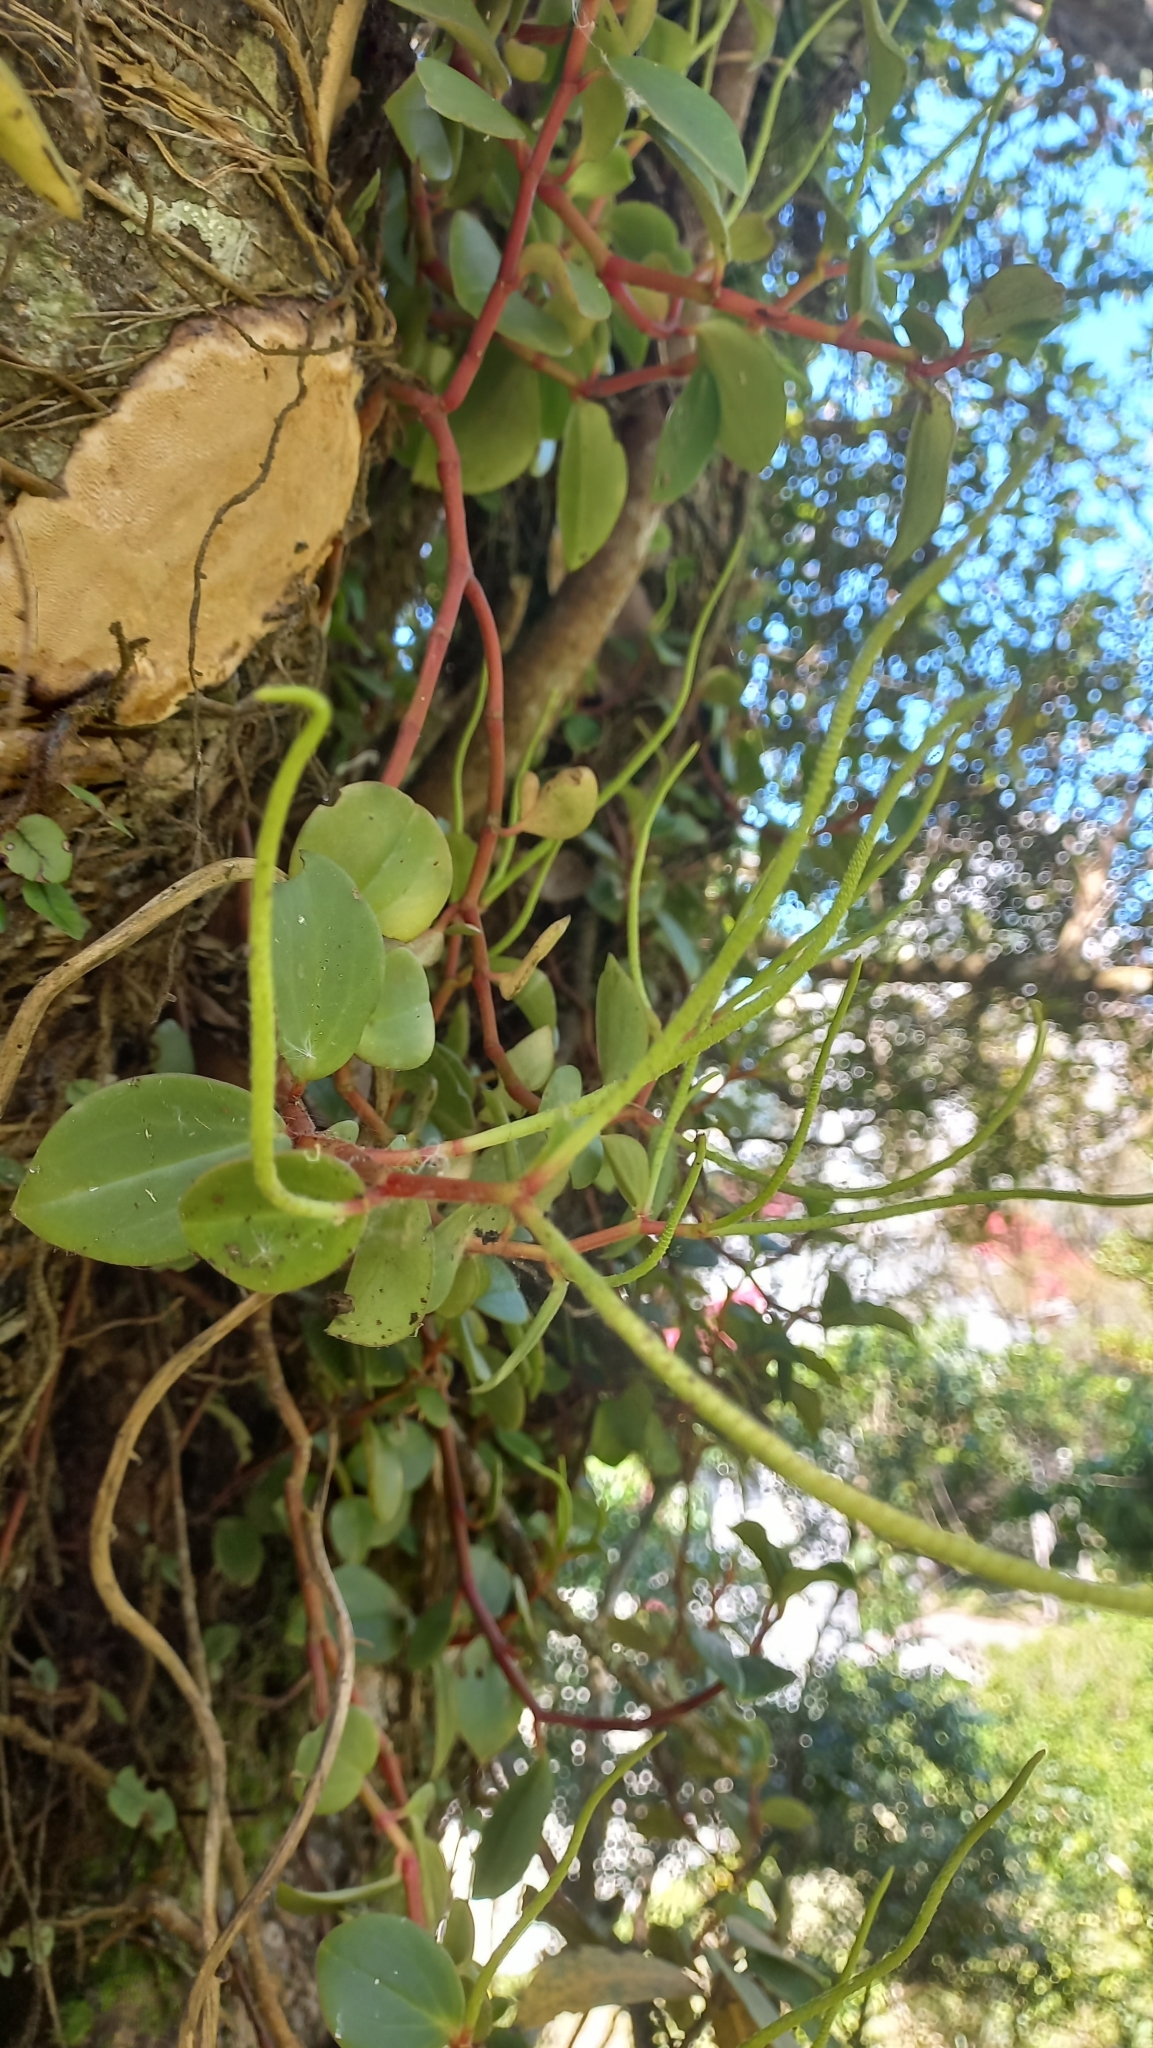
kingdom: Plantae
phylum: Tracheophyta
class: Magnoliopsida
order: Piperales
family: Piperaceae
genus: Peperomia
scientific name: Peperomia glabella
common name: Cypress peperomia
